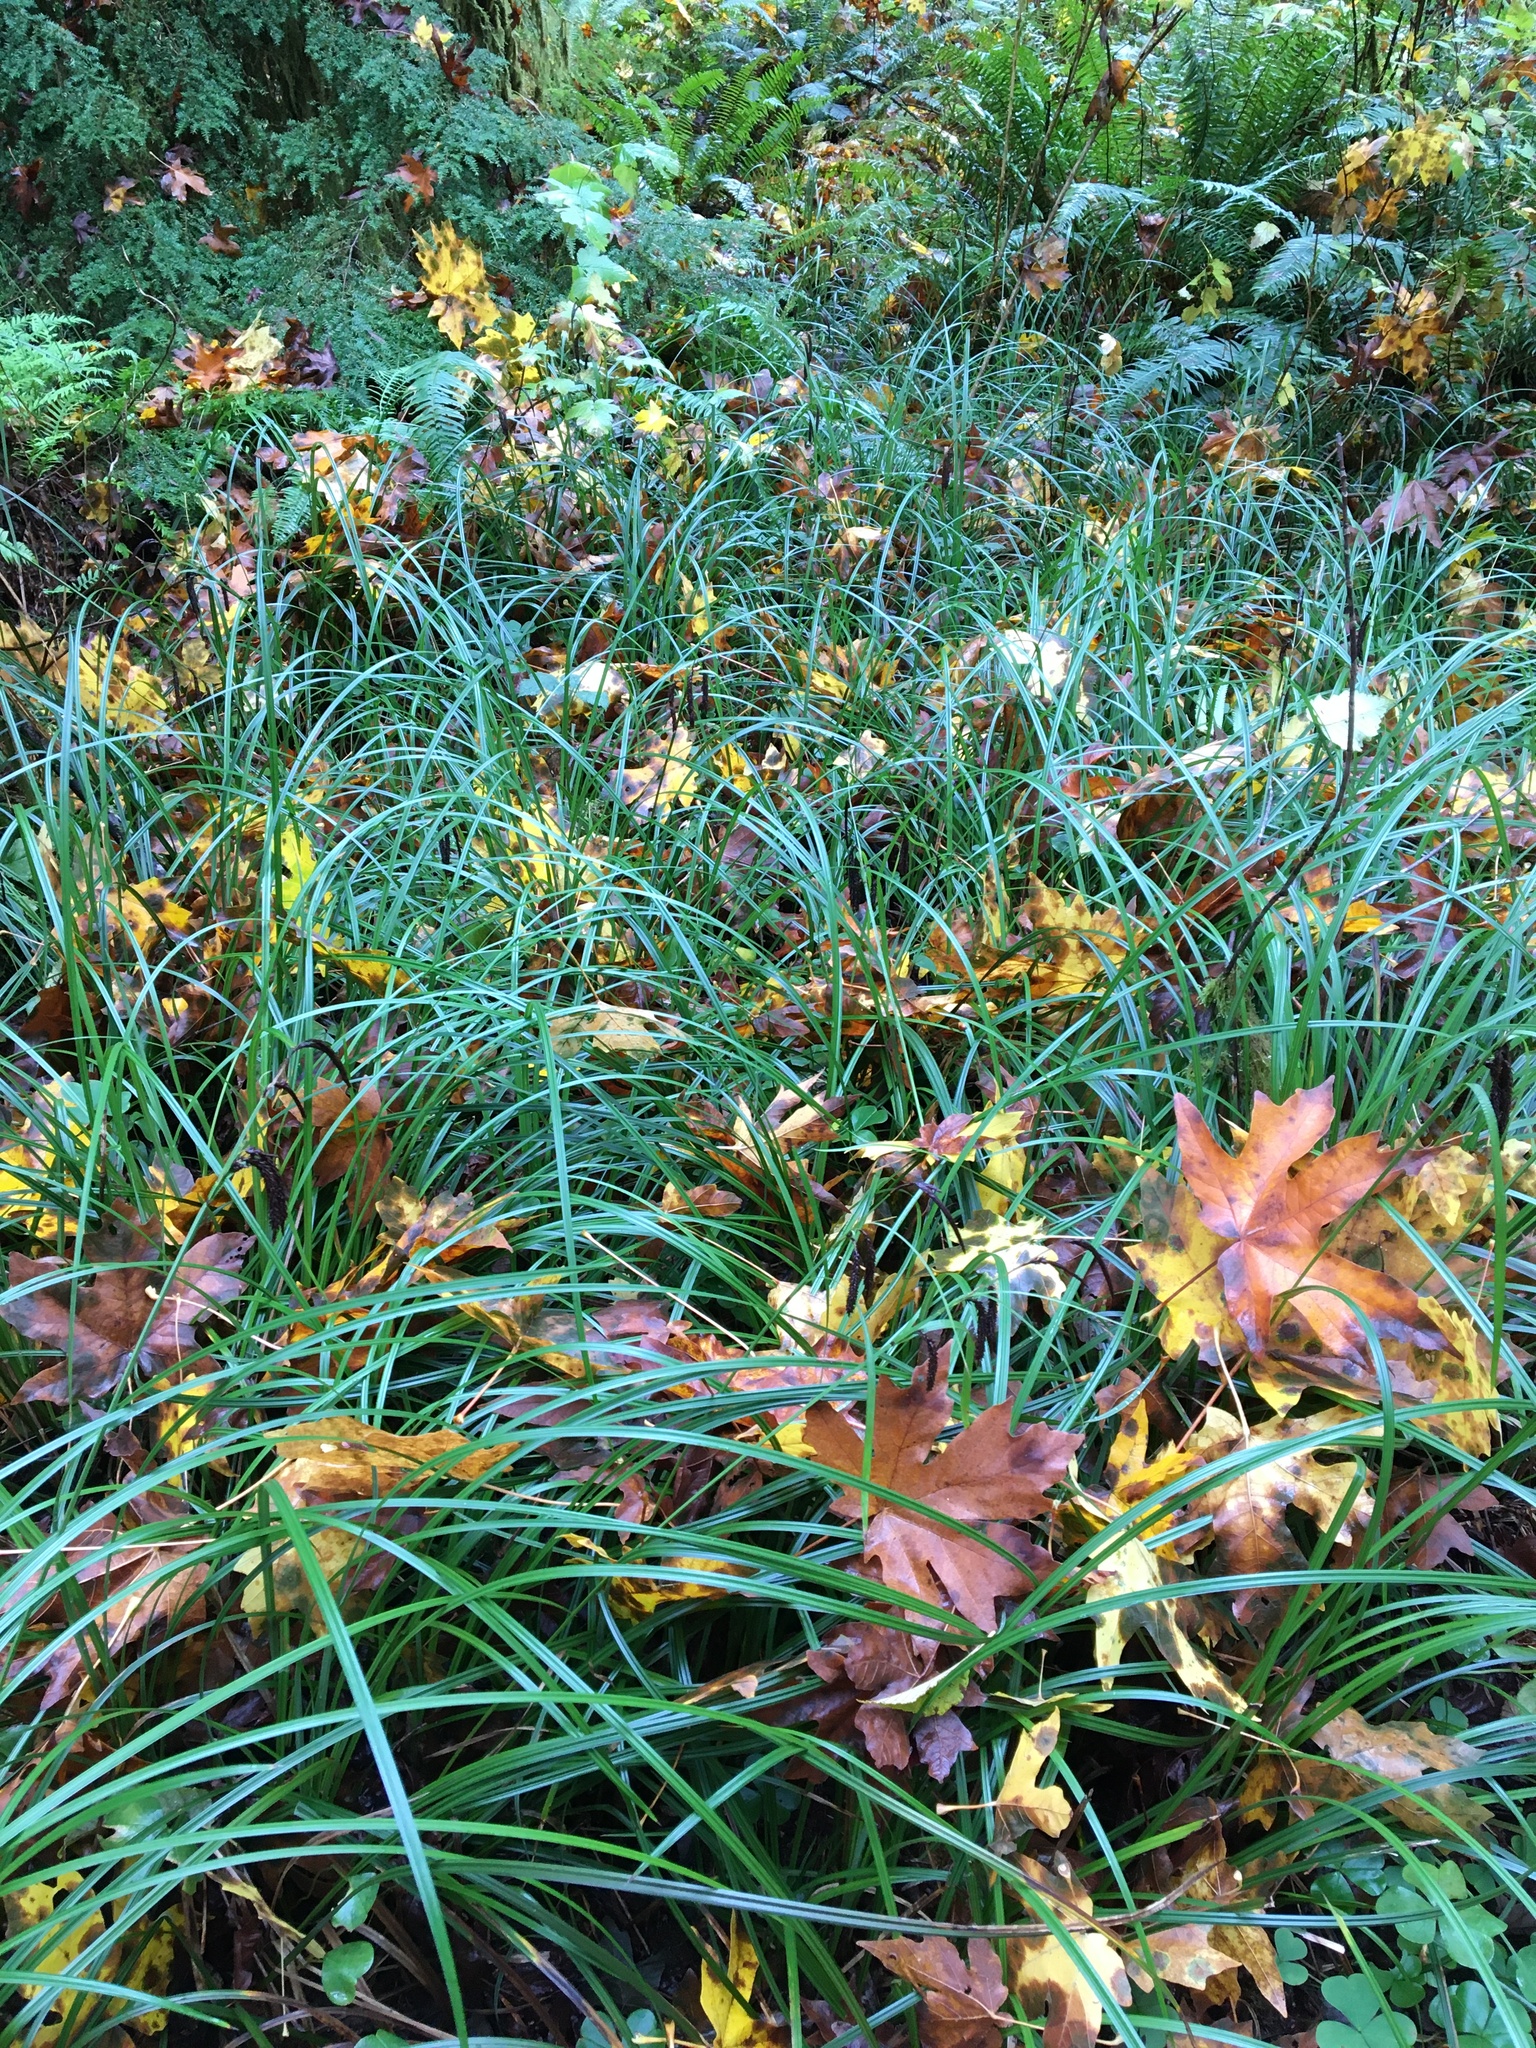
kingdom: Plantae
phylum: Tracheophyta
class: Liliopsida
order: Poales
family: Cyperaceae
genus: Carex
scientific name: Carex obnupta
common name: Slough sedge
